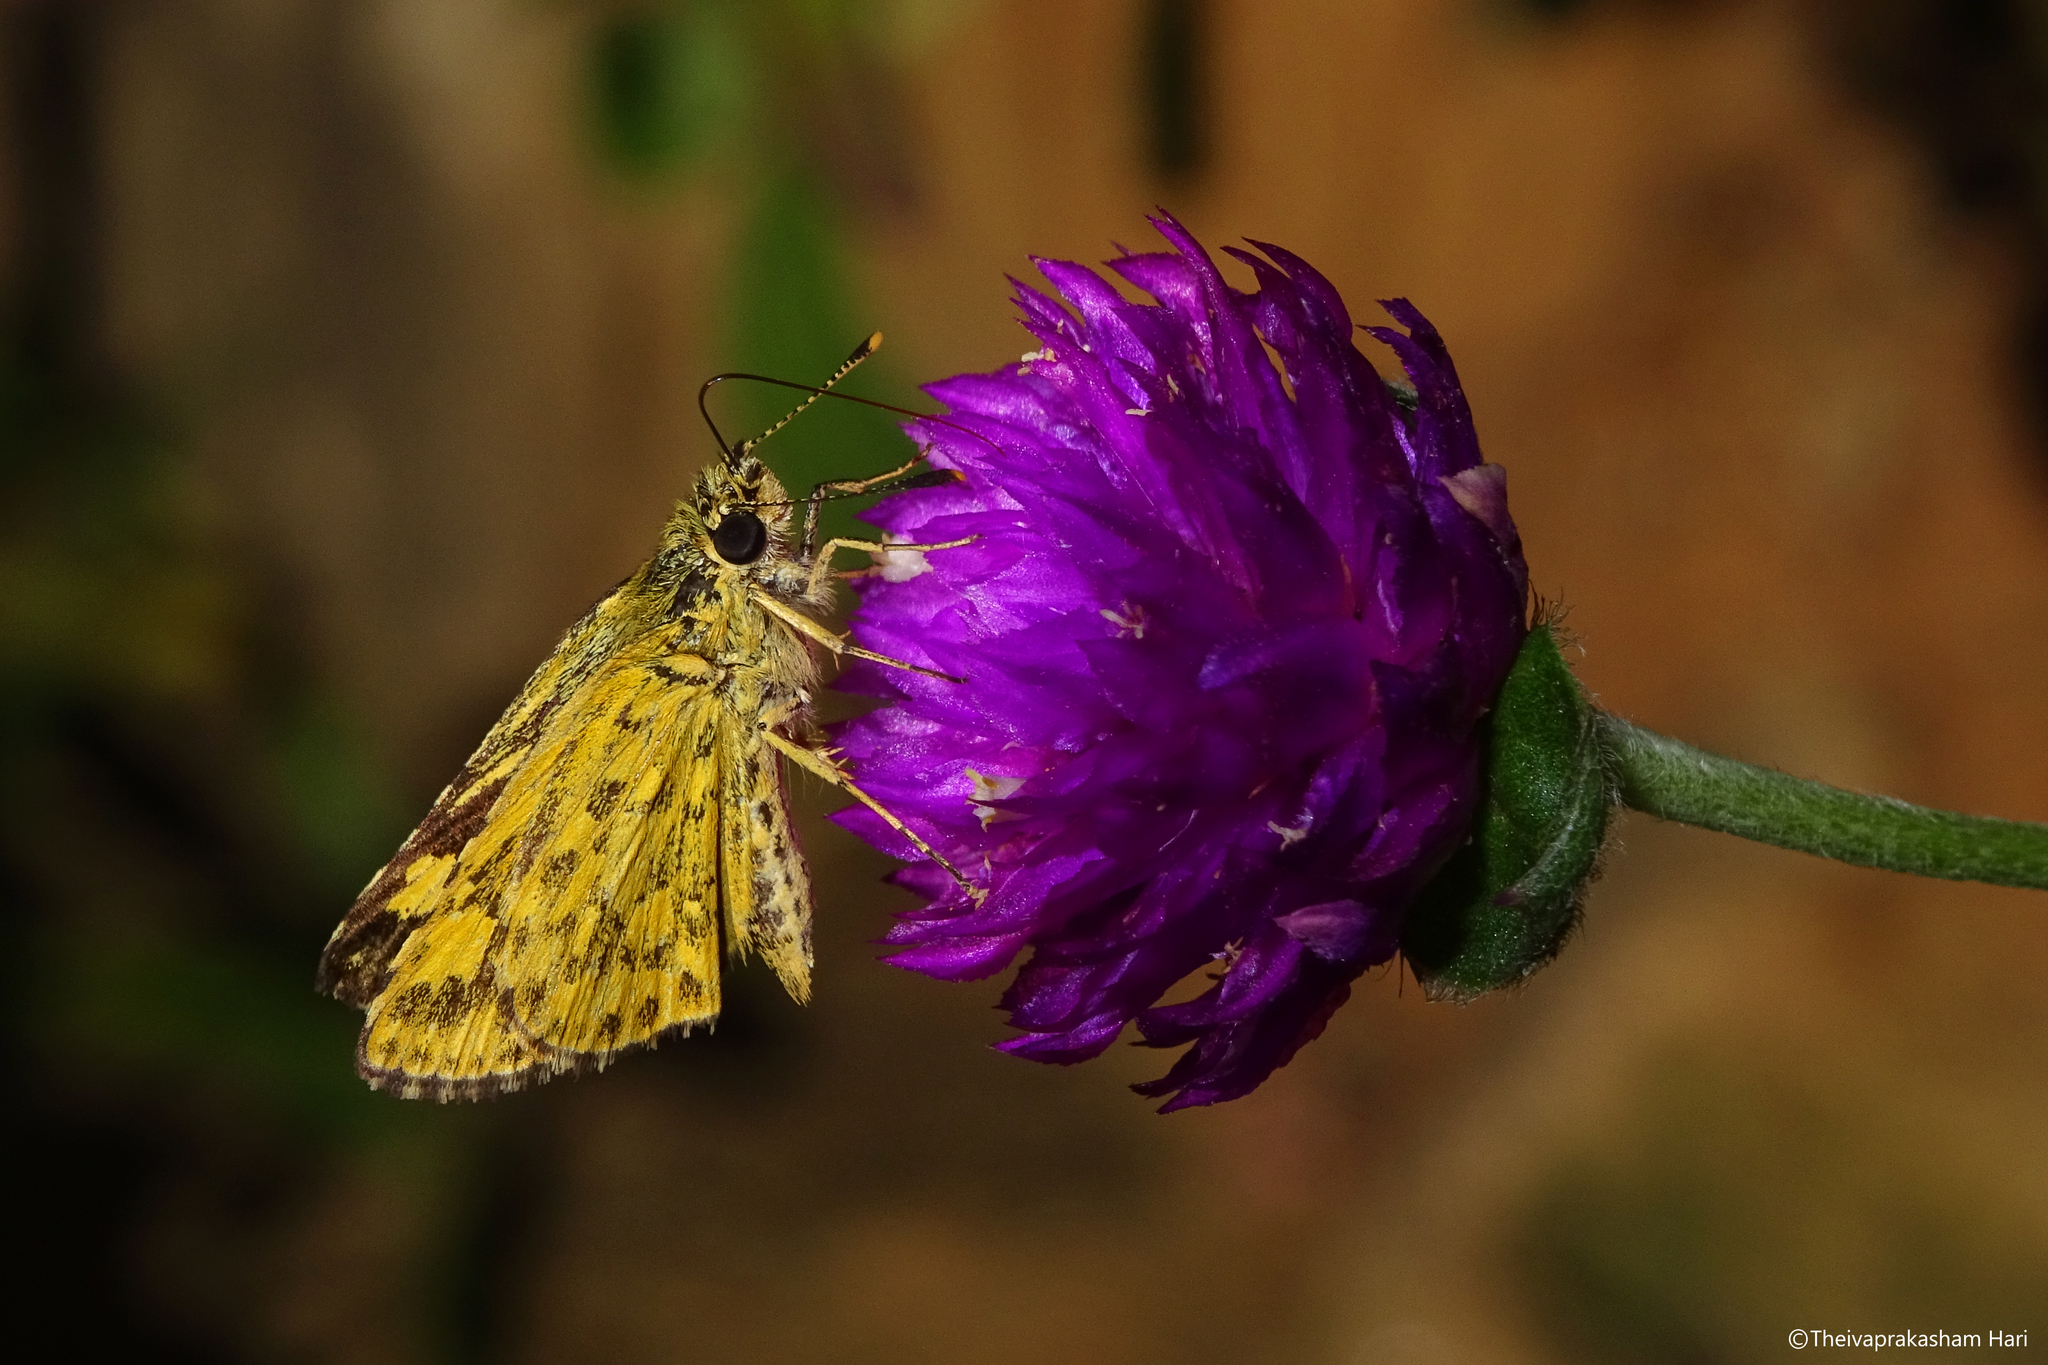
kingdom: Animalia
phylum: Arthropoda
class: Insecta
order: Lepidoptera
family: Hesperiidae
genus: Ampittia
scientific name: Ampittia dioscorides
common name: Common bush hopper
